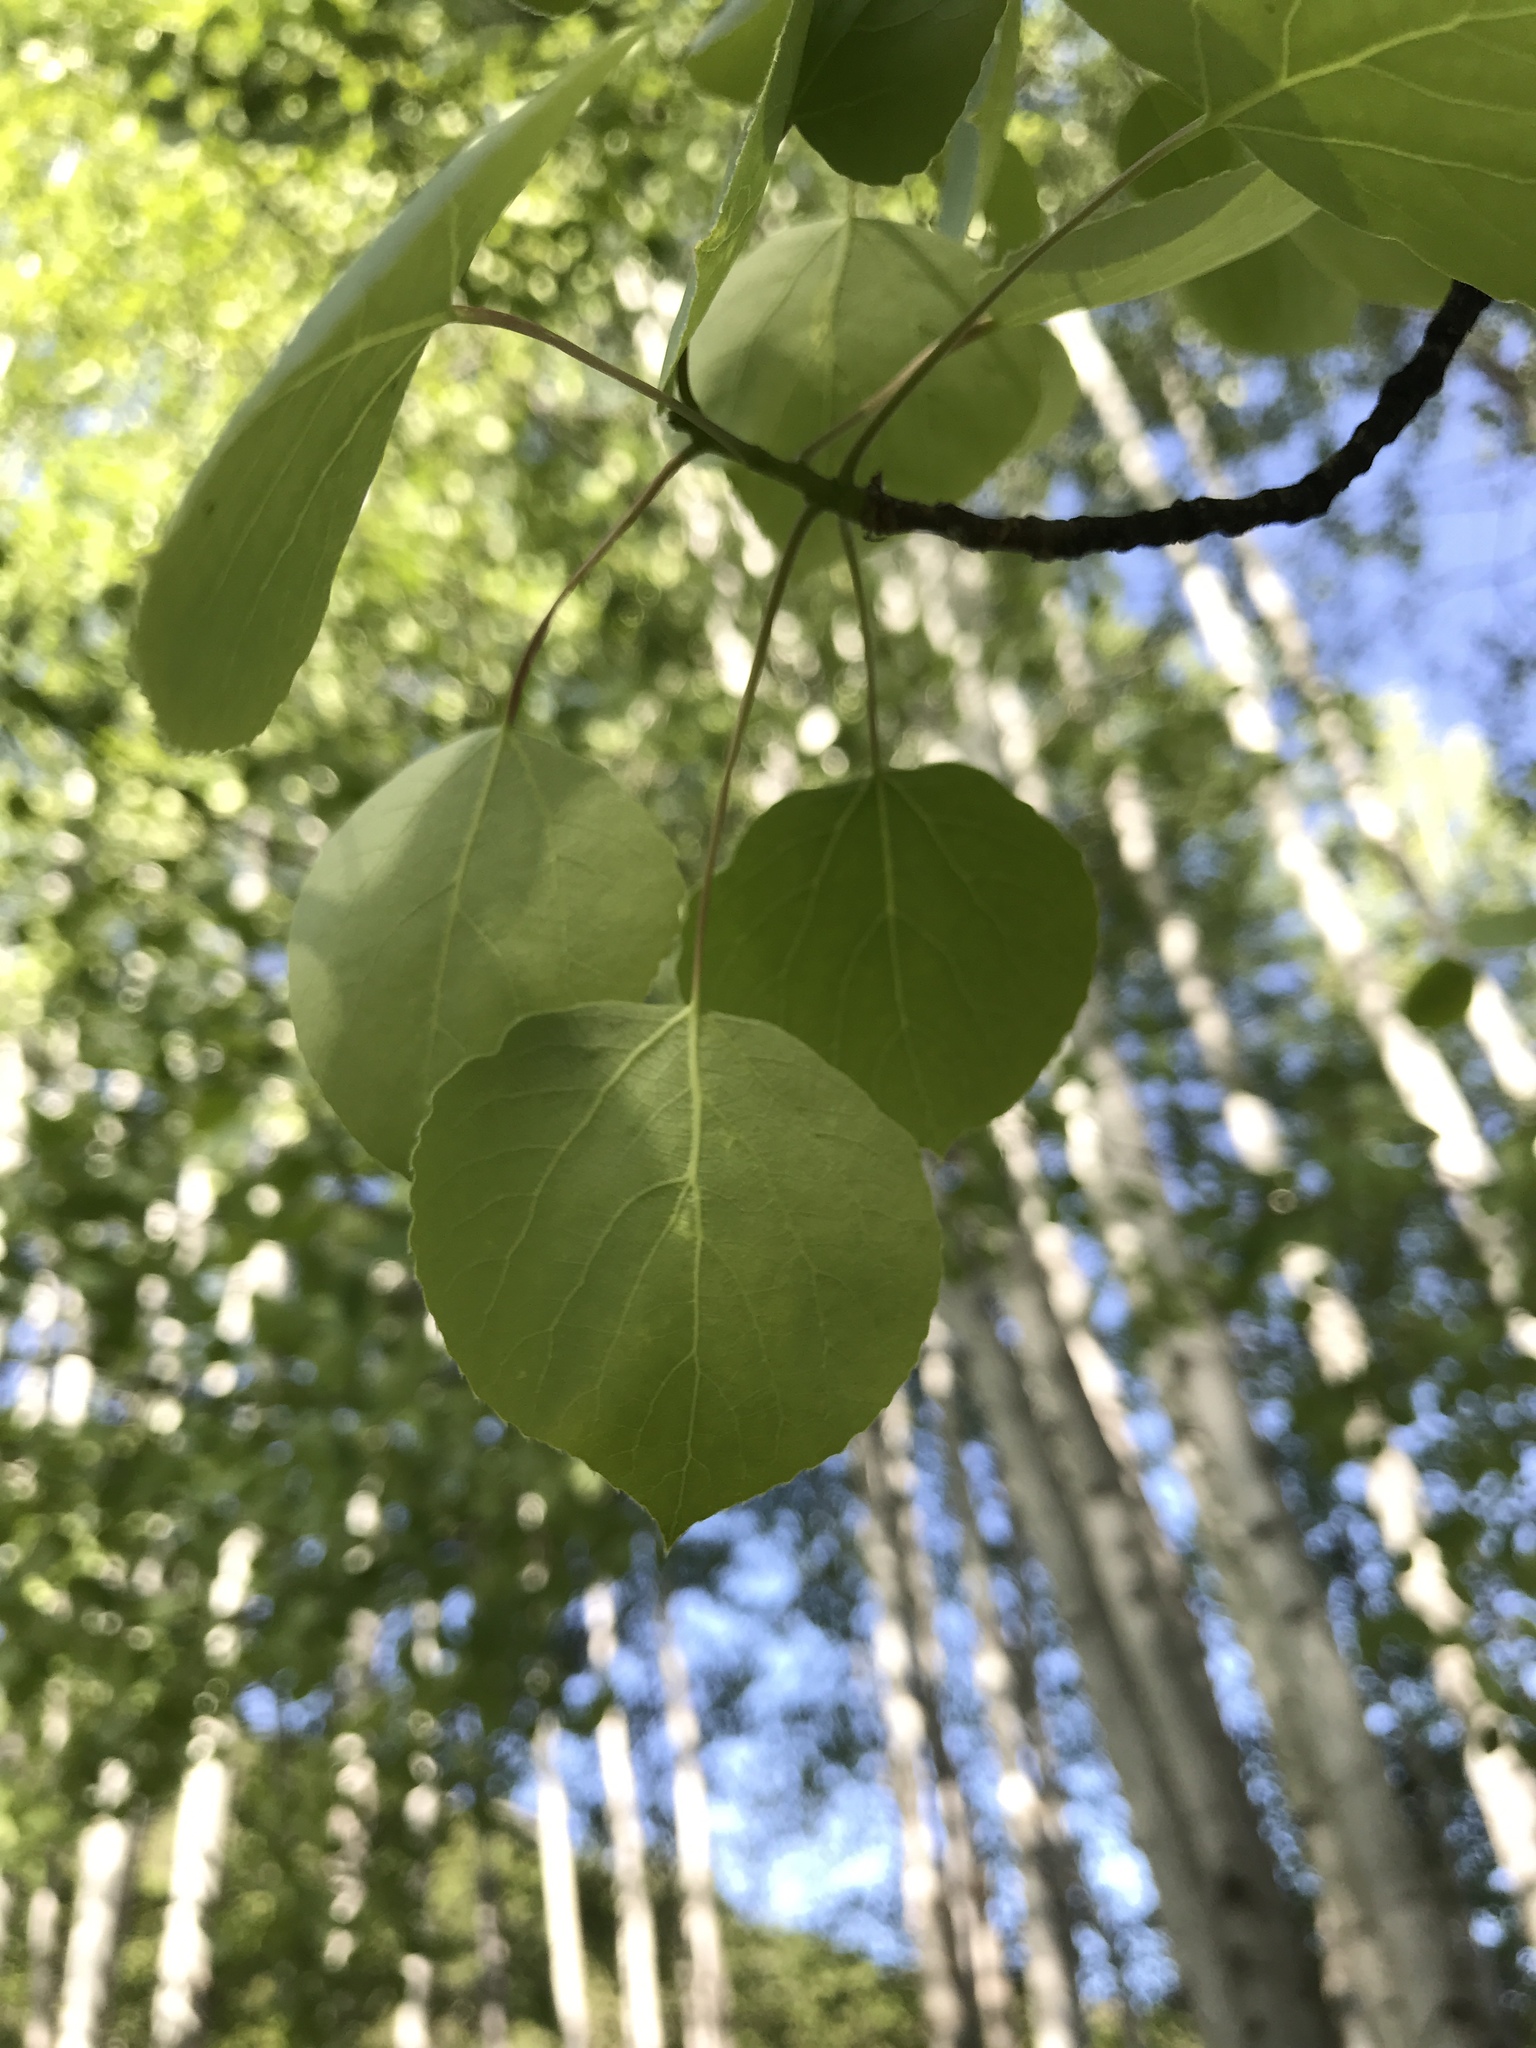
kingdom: Plantae
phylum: Tracheophyta
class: Magnoliopsida
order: Malpighiales
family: Salicaceae
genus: Populus
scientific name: Populus tremuloides
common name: Quaking aspen
